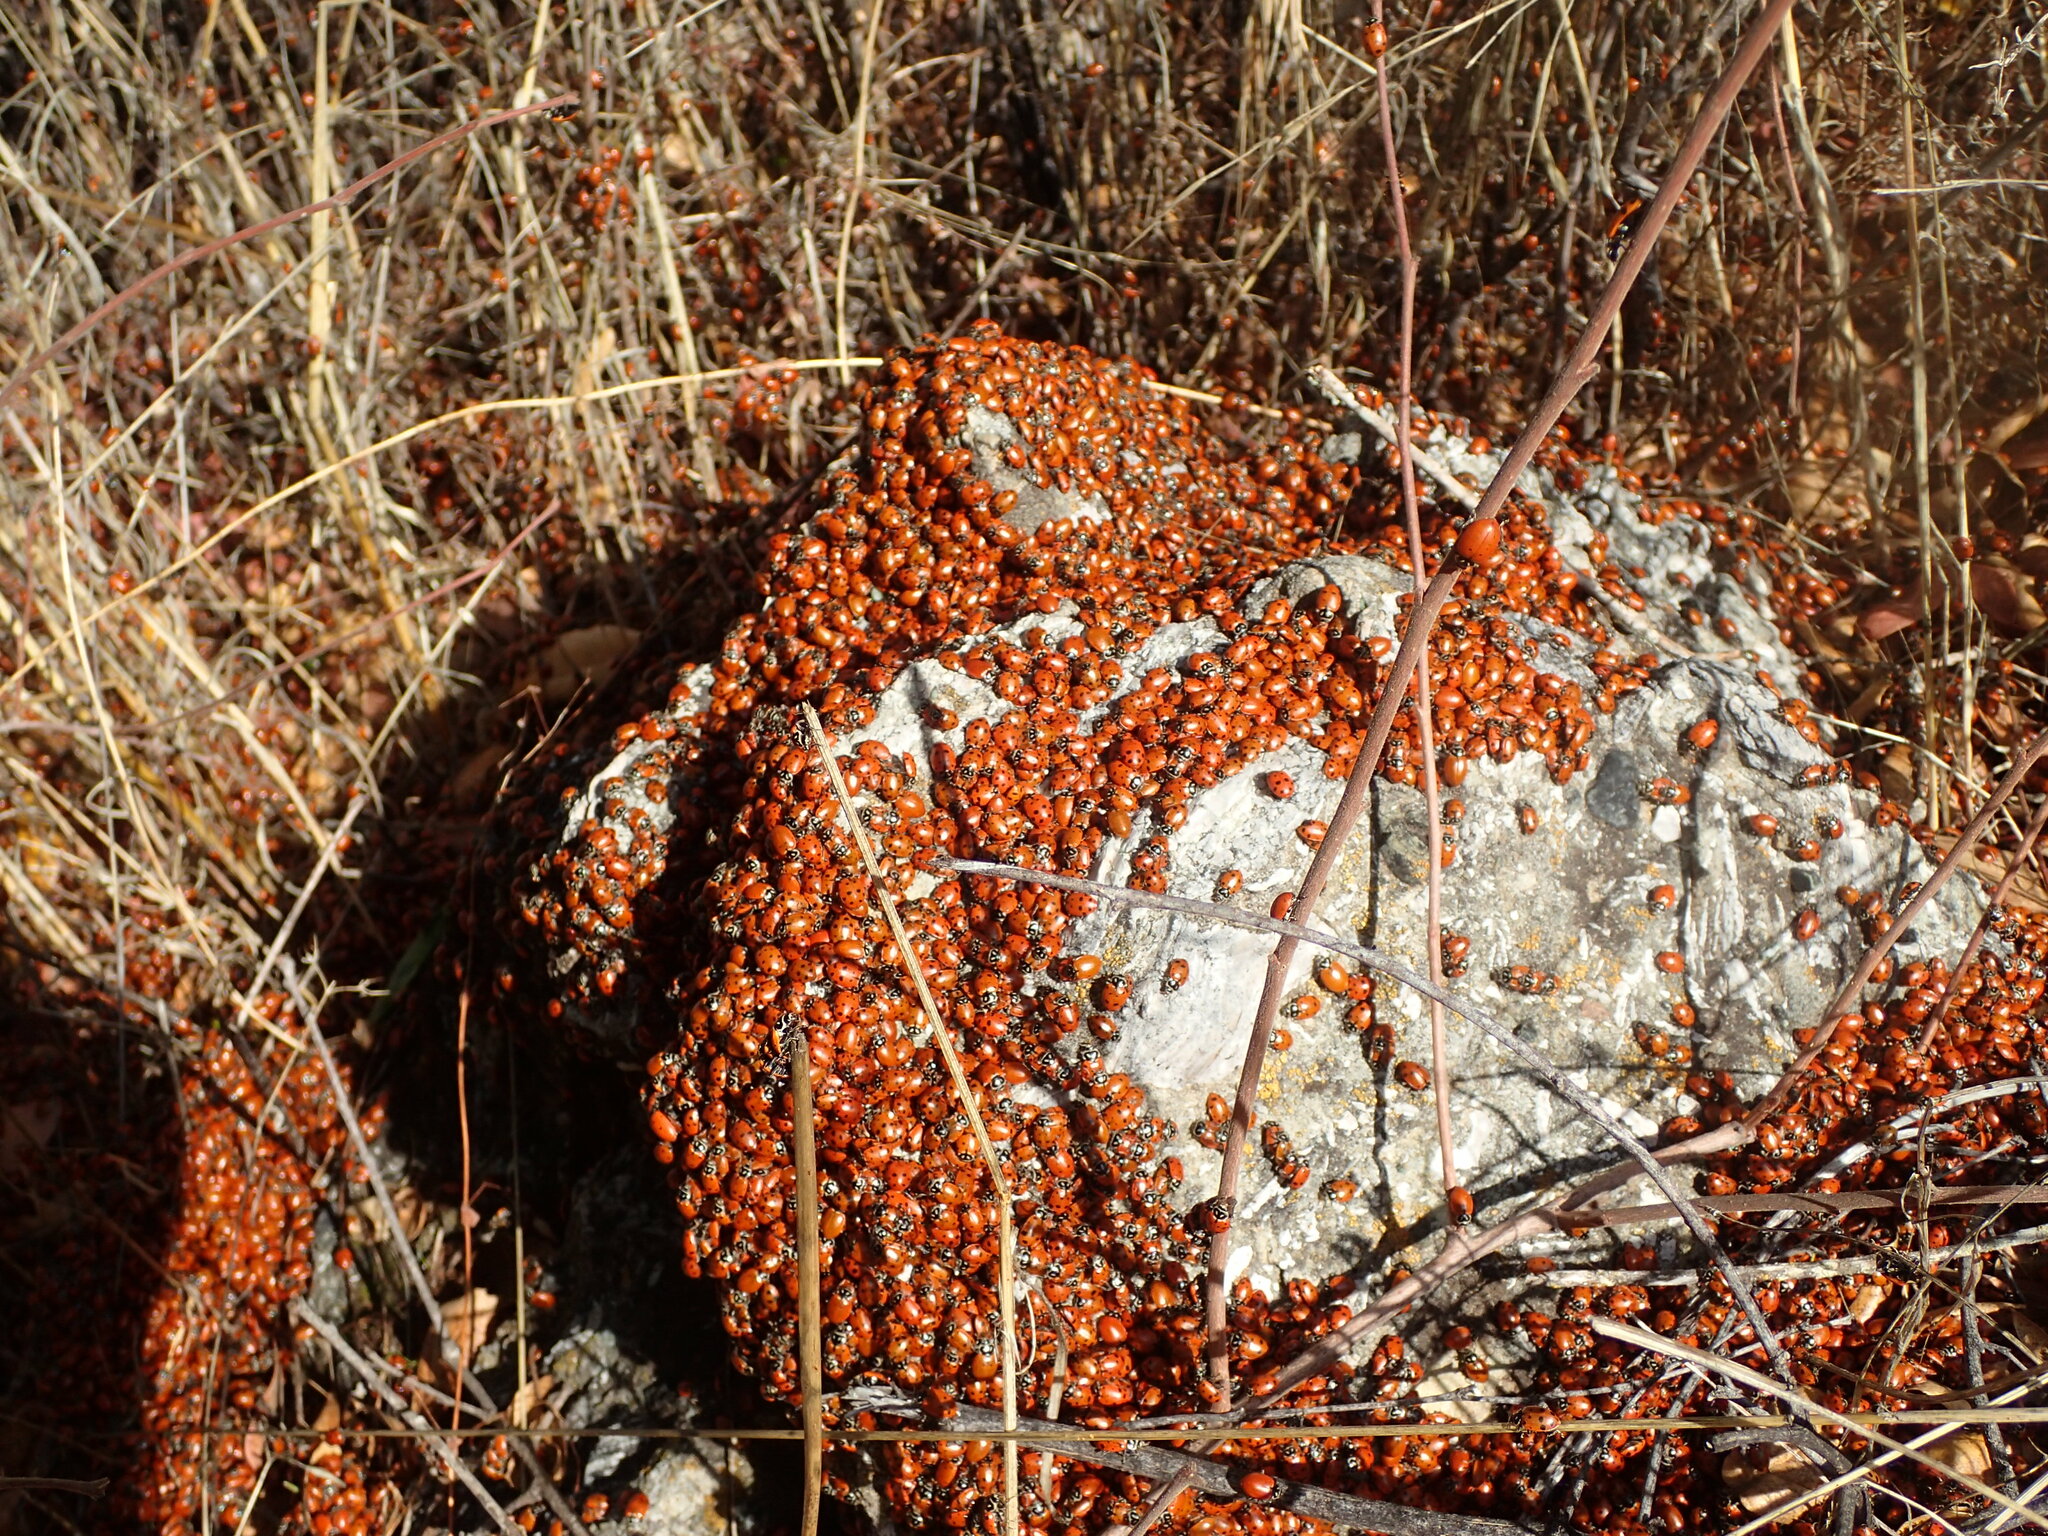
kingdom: Animalia
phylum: Arthropoda
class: Insecta
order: Coleoptera
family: Coccinellidae
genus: Hippodamia
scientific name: Hippodamia convergens
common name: Convergent lady beetle
